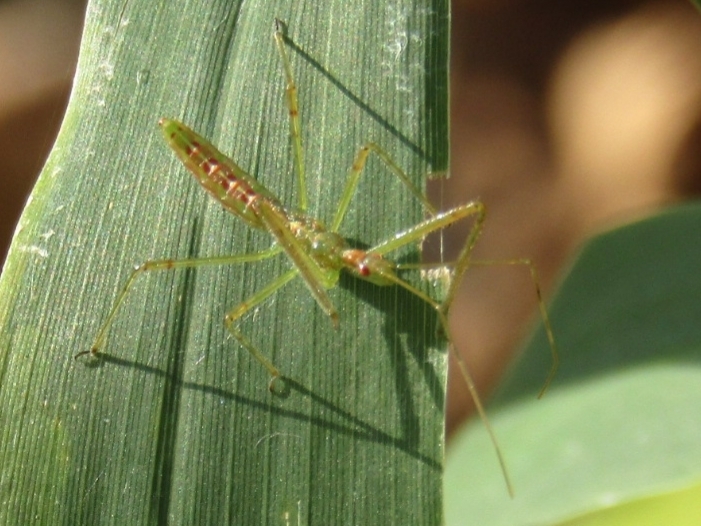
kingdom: Animalia
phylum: Arthropoda
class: Insecta
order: Hemiptera
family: Reduviidae
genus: Zelus
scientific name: Zelus luridus
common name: Pale green assassin bug
